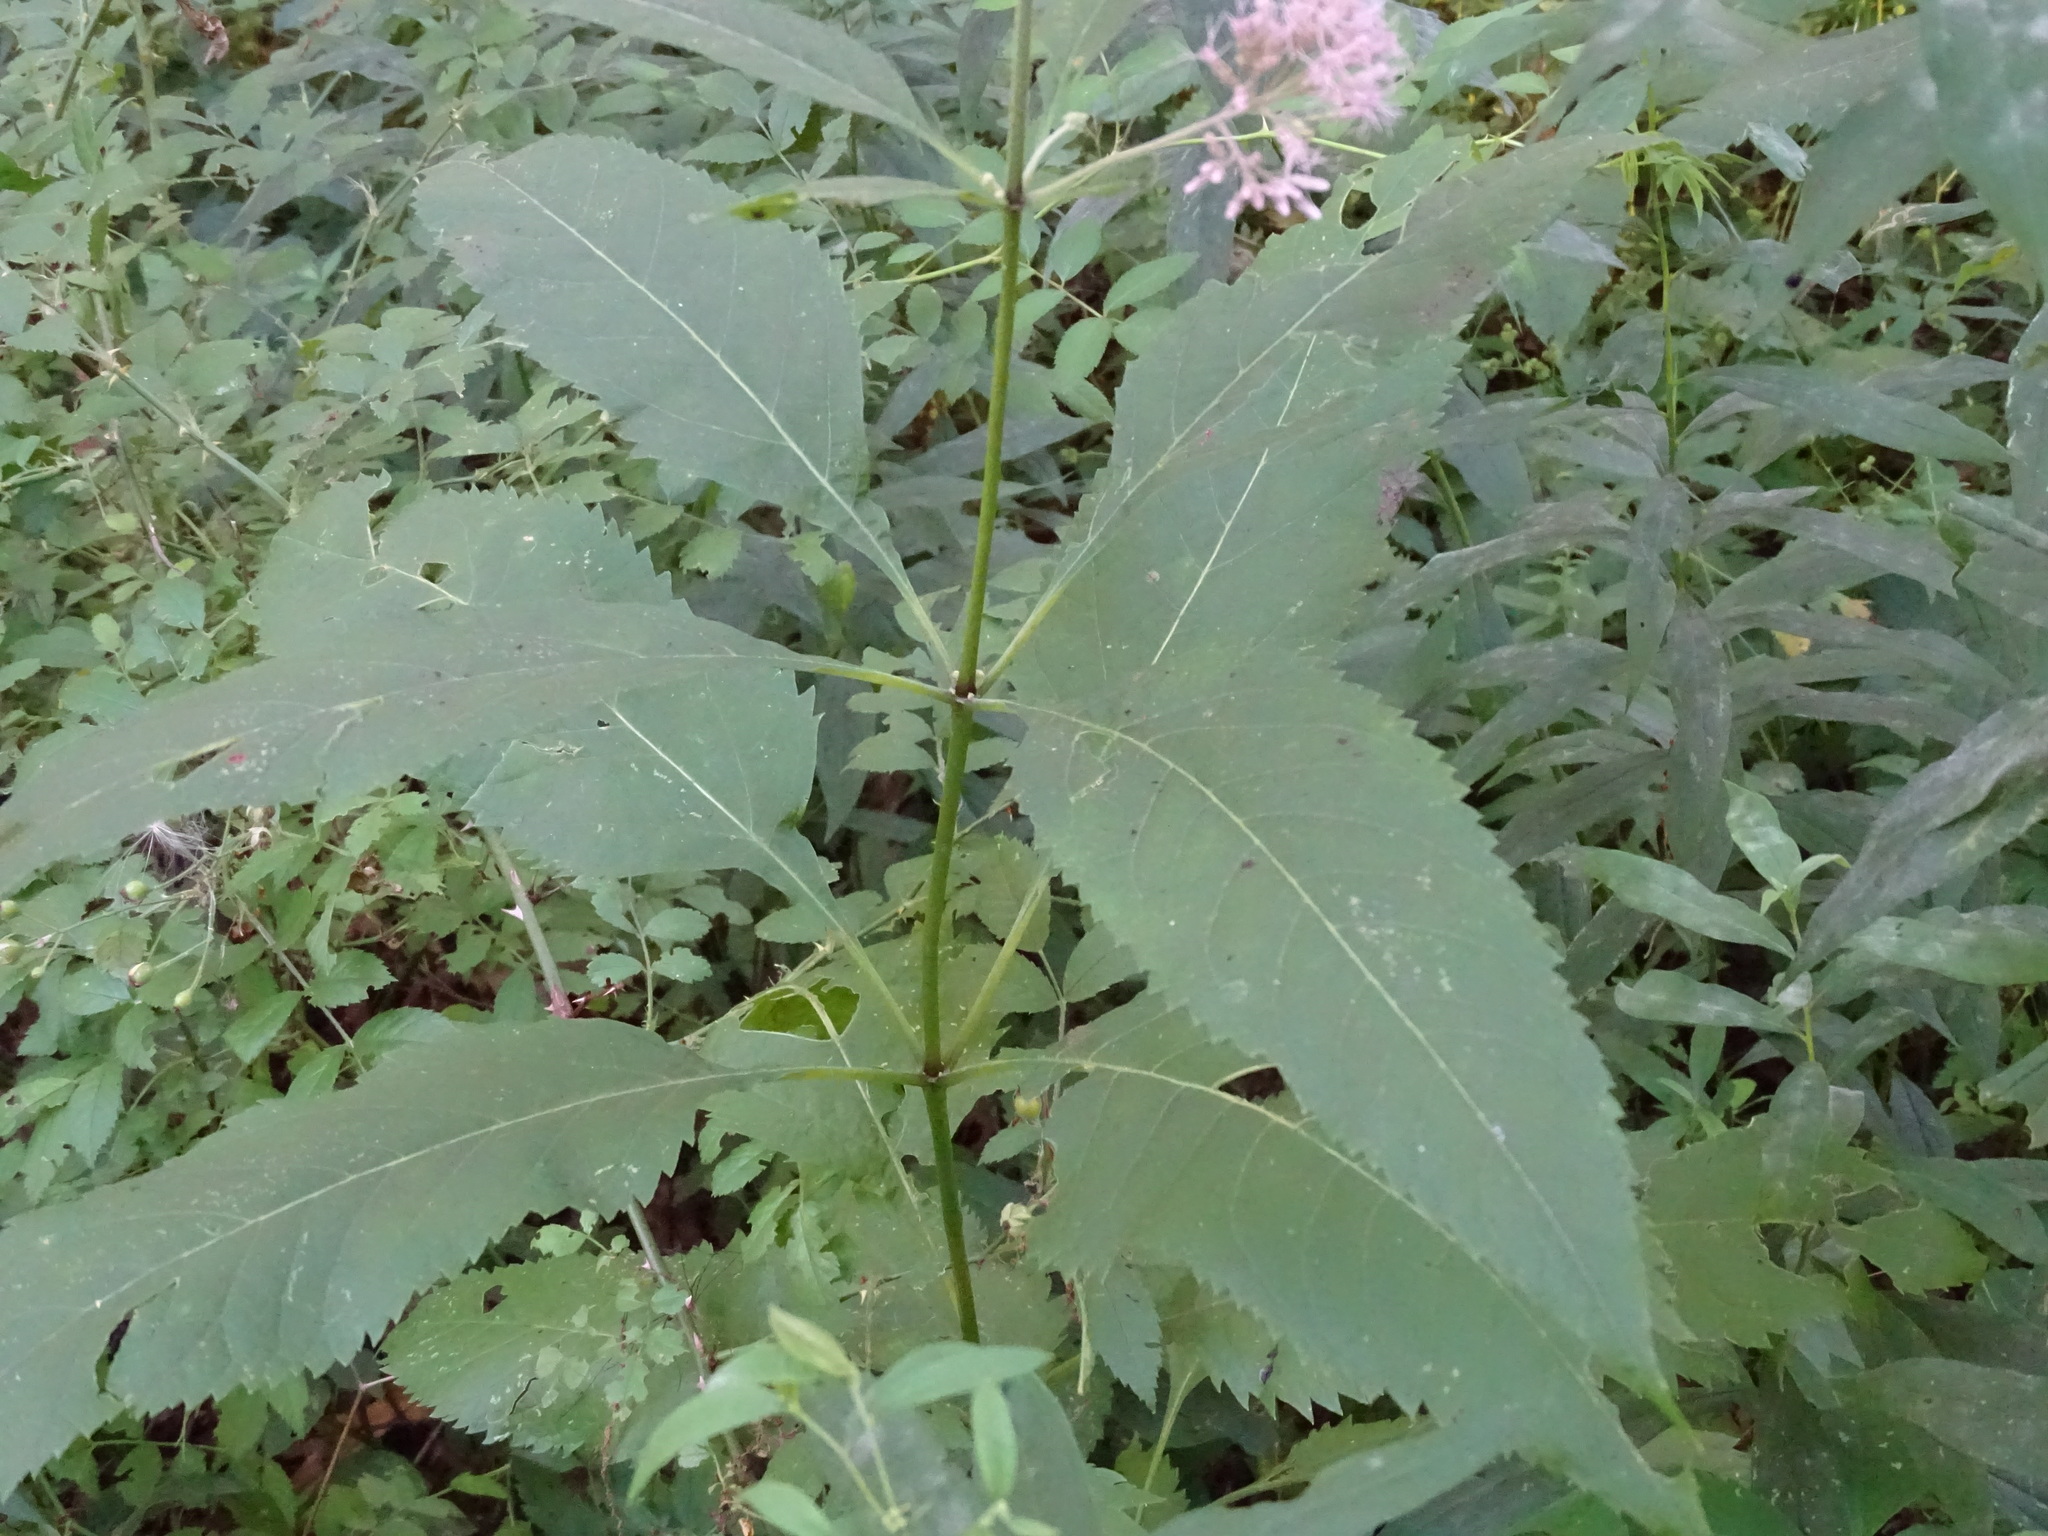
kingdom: Plantae
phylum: Tracheophyta
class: Magnoliopsida
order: Asterales
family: Asteraceae
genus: Eutrochium
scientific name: Eutrochium purpureum
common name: Gravelroot
